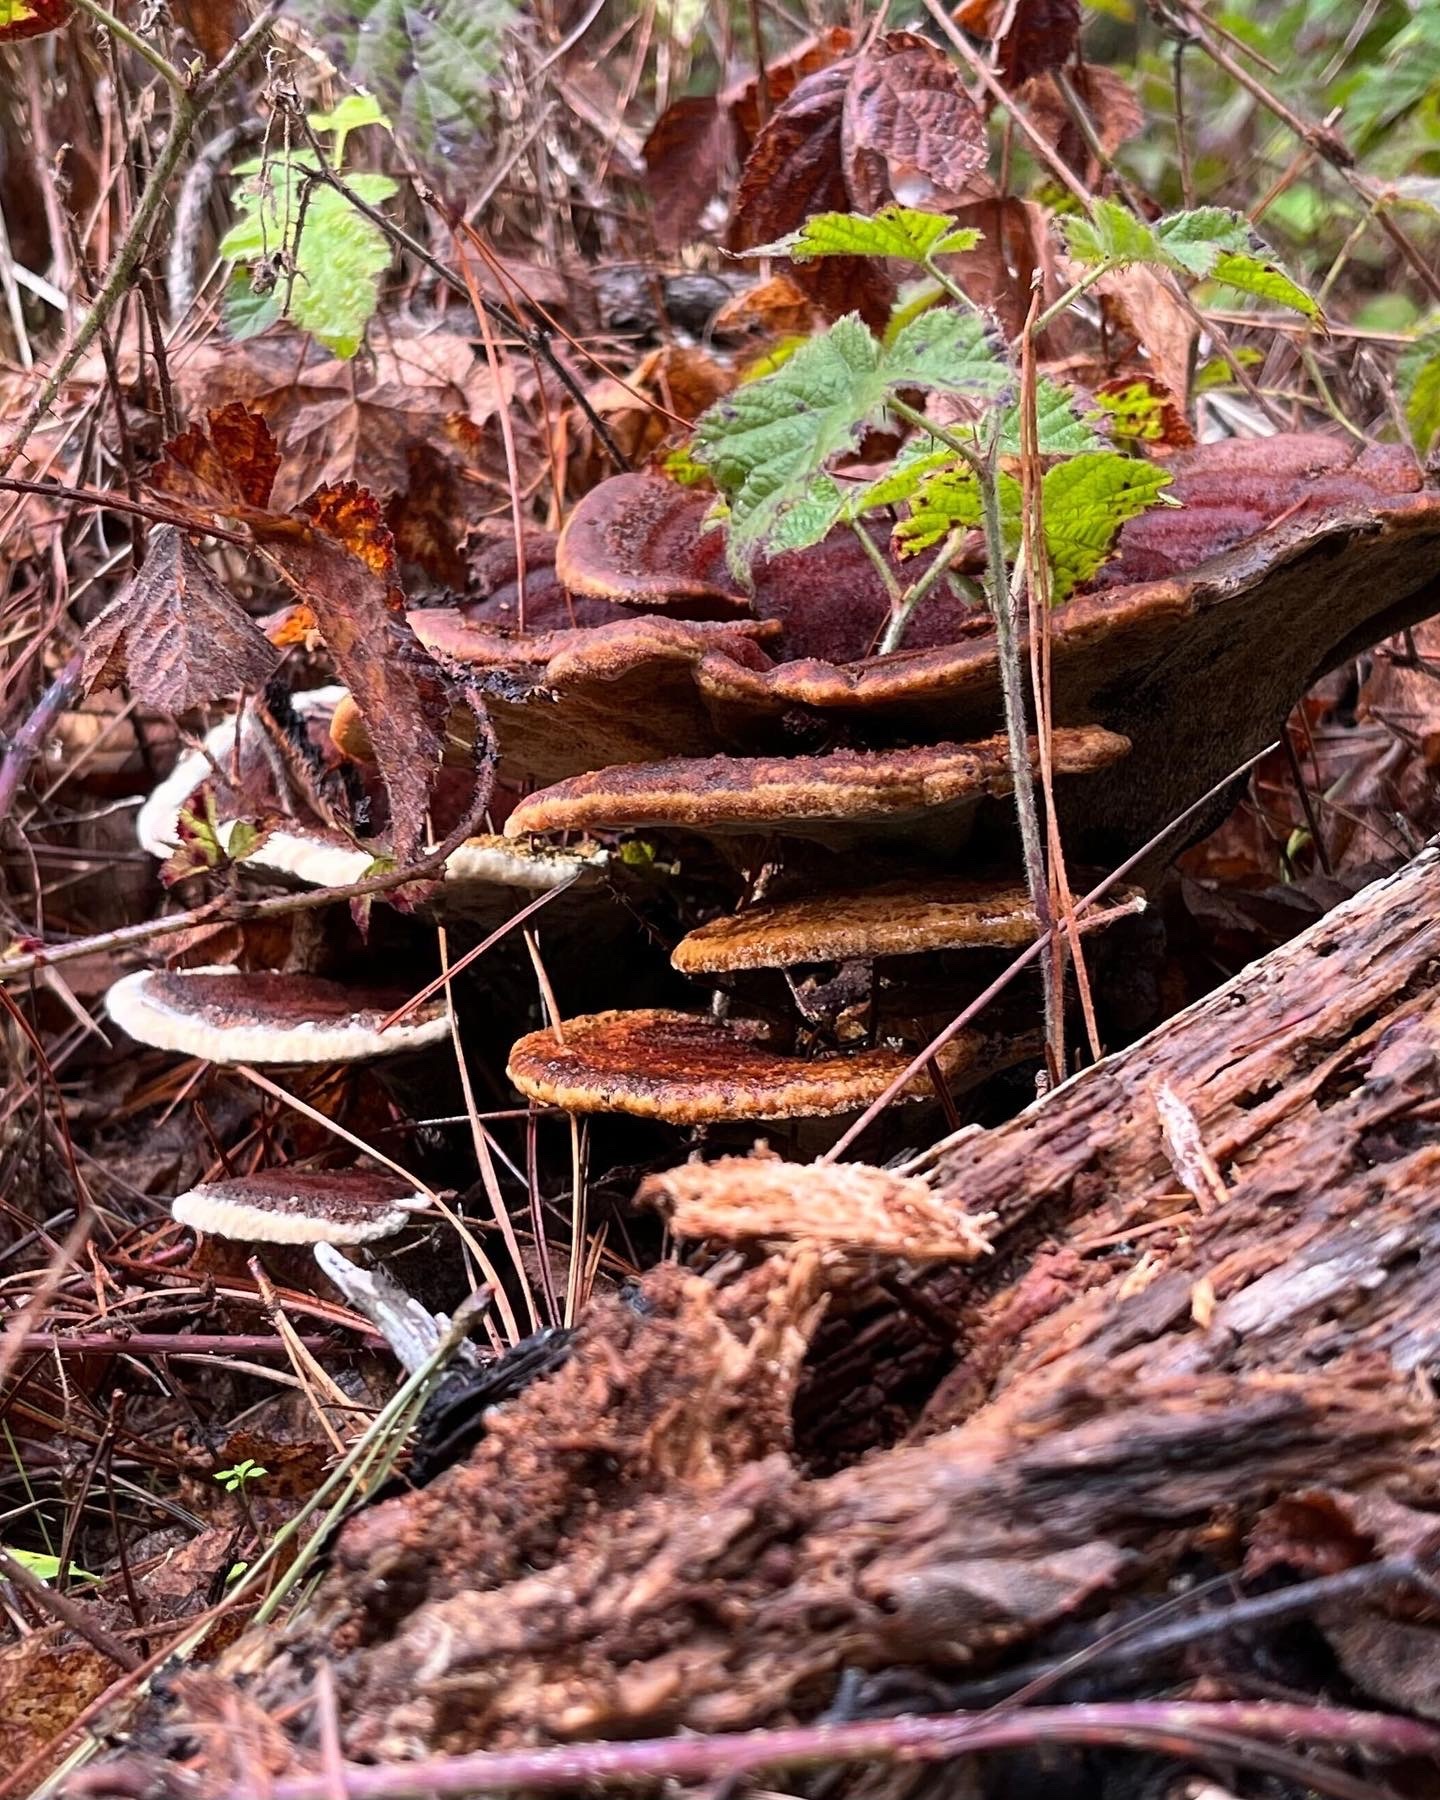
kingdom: Fungi
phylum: Basidiomycota
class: Agaricomycetes
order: Polyporales
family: Laetiporaceae
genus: Phaeolus
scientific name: Phaeolus schweinitzii
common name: Dyer's mazegill
